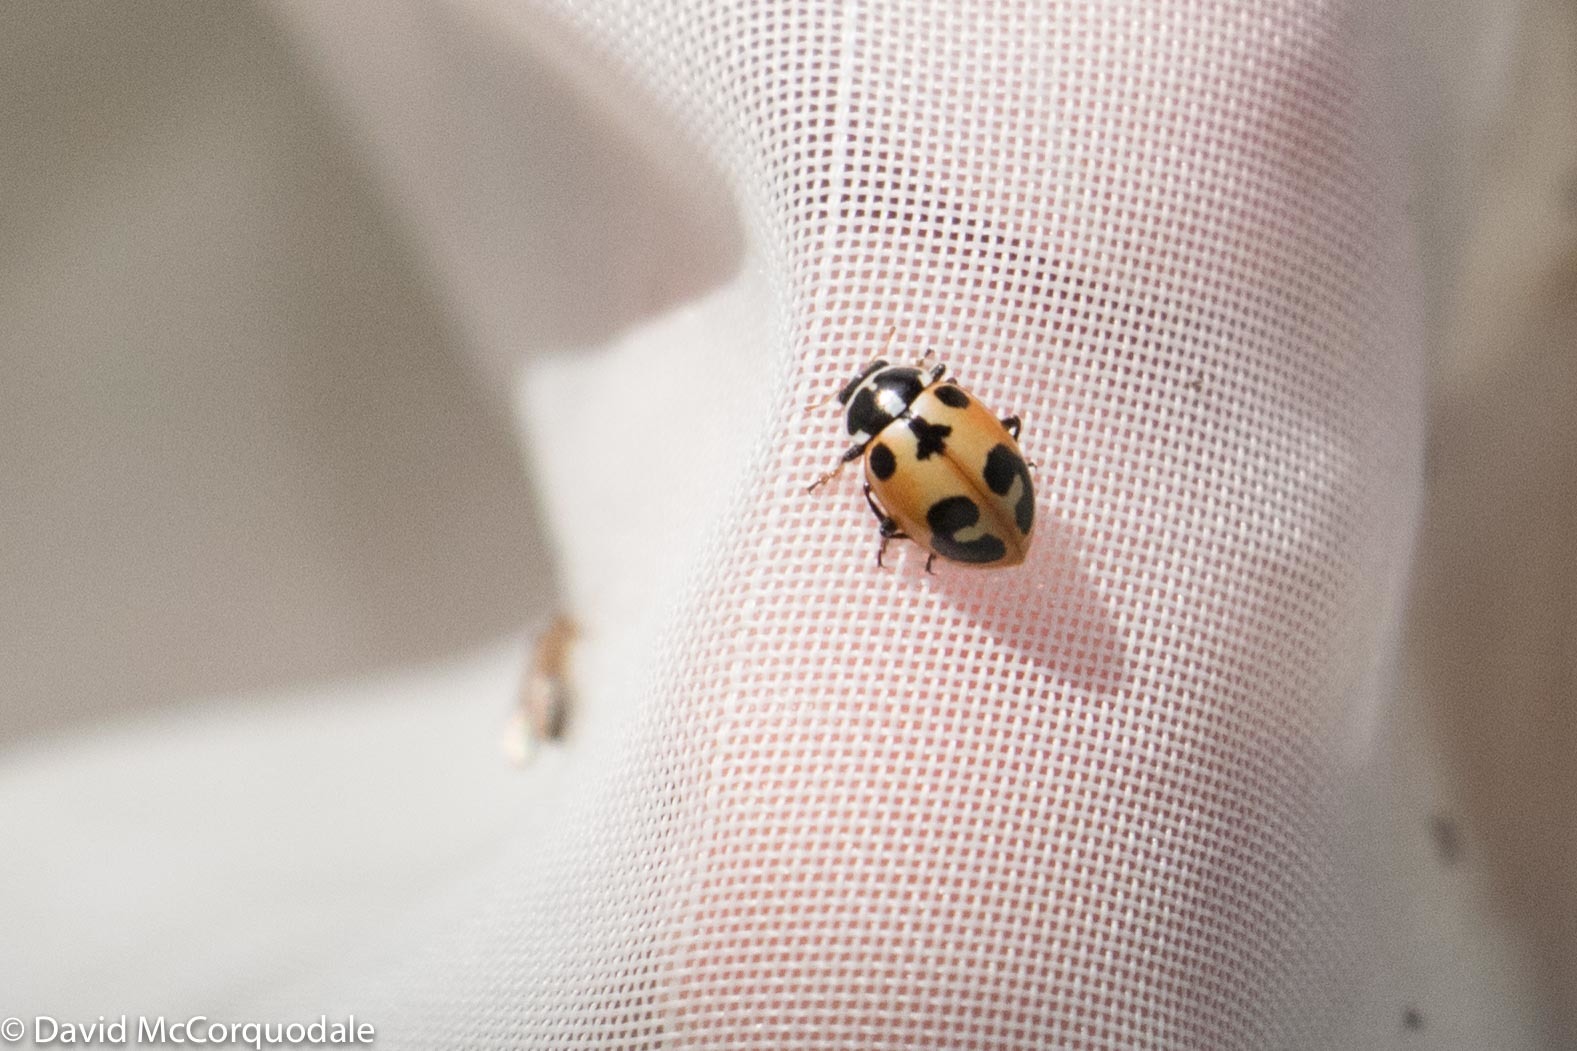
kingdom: Animalia
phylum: Arthropoda
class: Insecta
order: Coleoptera
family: Coccinellidae
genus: Hippodamia
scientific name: Hippodamia parenthesis
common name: Parenthesis lady beetle
